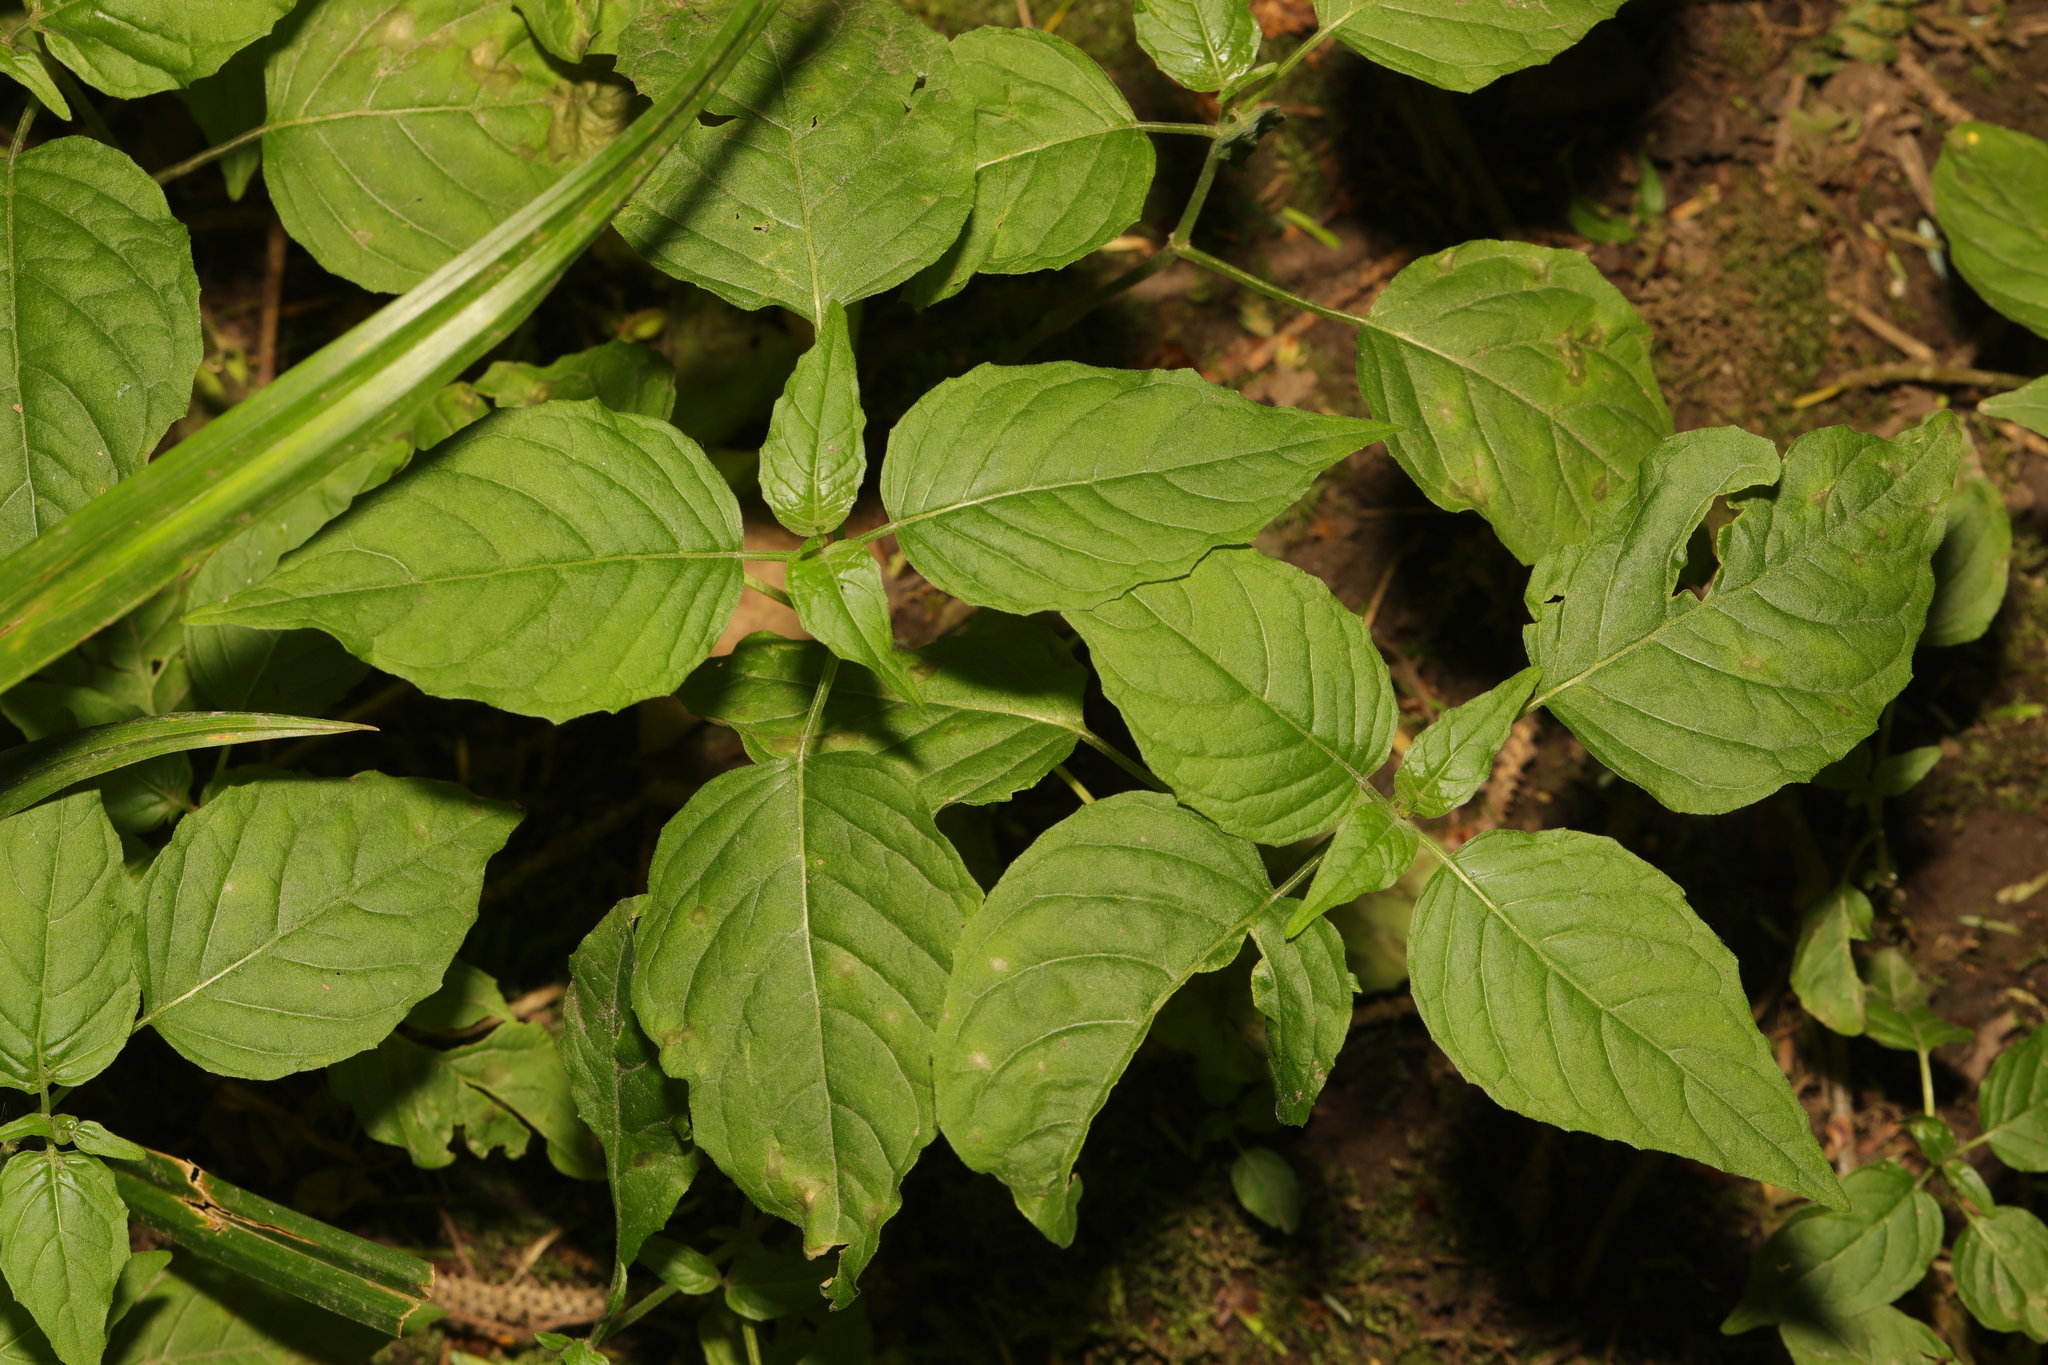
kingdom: Plantae
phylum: Tracheophyta
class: Magnoliopsida
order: Myrtales
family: Onagraceae
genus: Circaea
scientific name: Circaea lutetiana
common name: Enchanter's-nightshade
